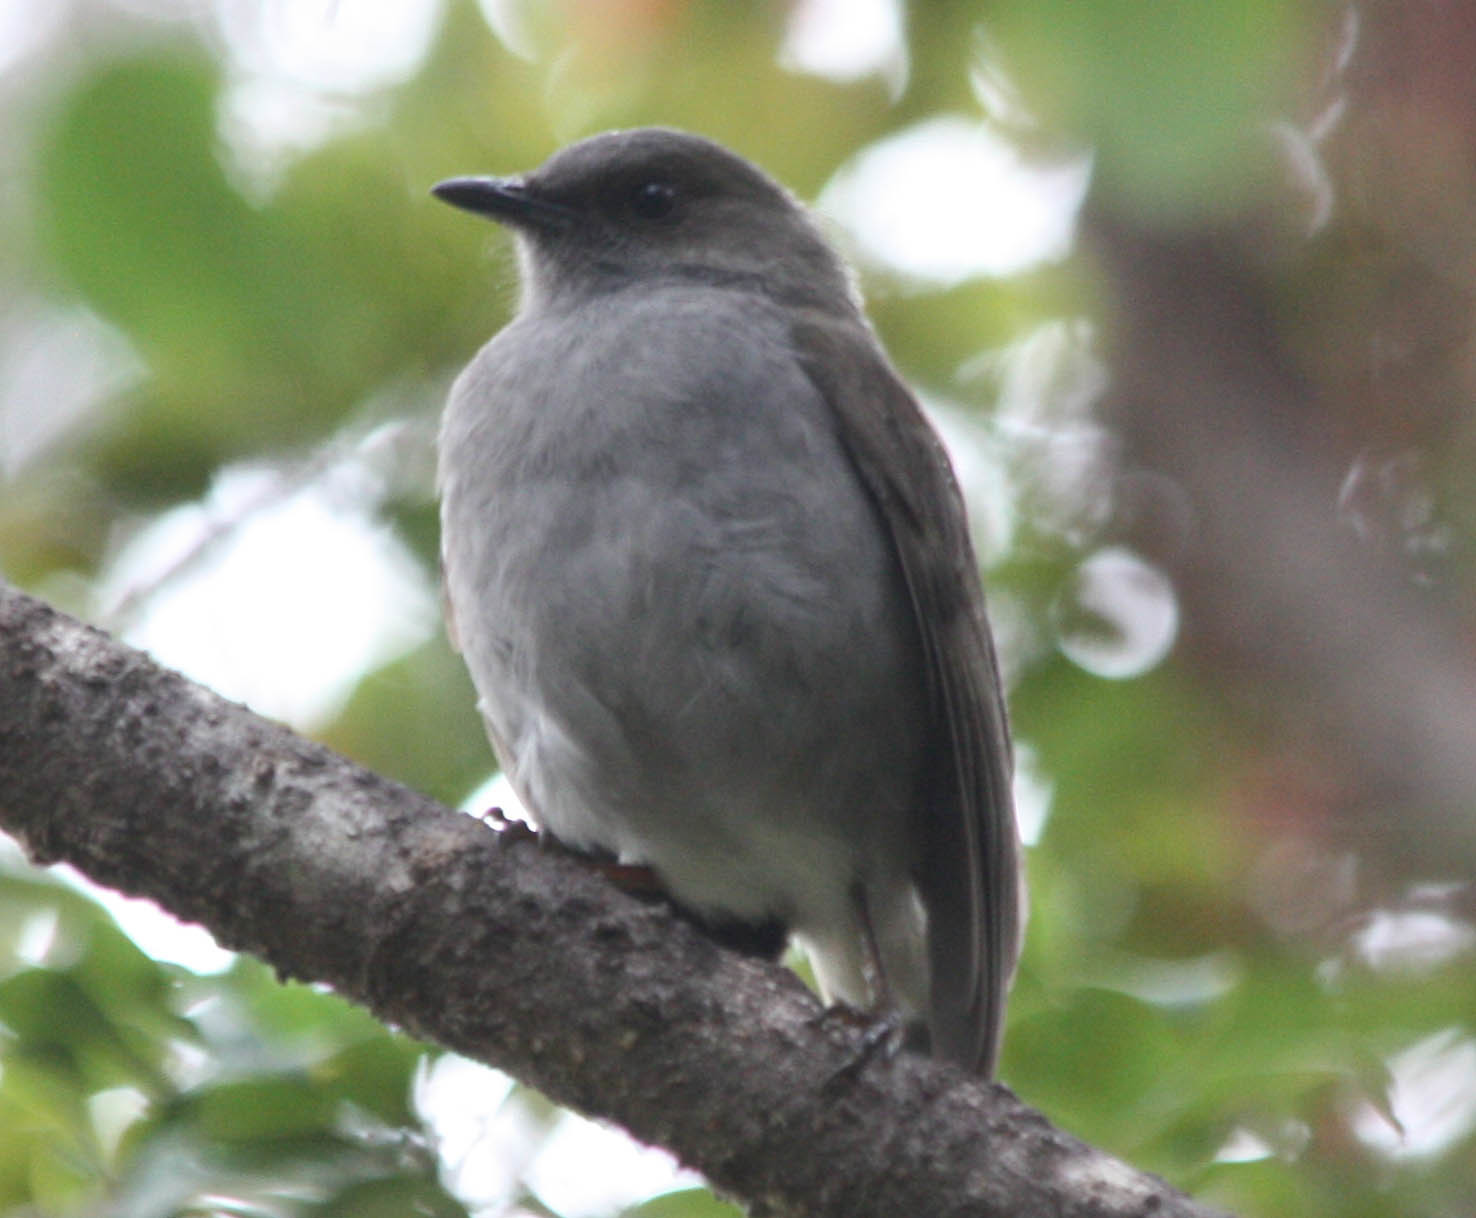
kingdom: Animalia
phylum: Chordata
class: Aves
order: Passeriformes
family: Turdidae
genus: Myadestes
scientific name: Myadestes obscurus
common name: Omao
